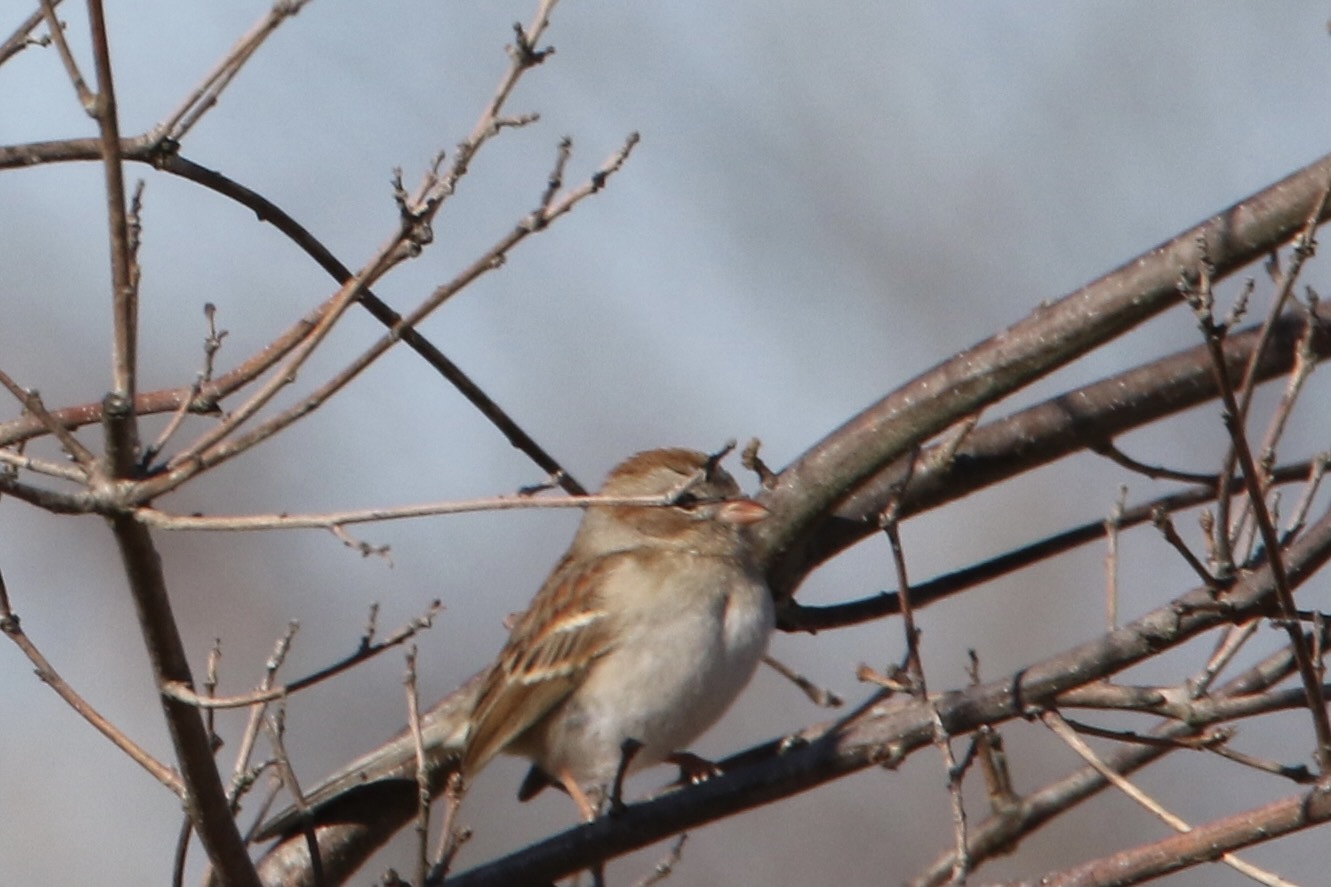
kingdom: Animalia
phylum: Chordata
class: Aves
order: Passeriformes
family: Passerellidae
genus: Spizella
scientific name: Spizella pusilla
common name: Field sparrow
